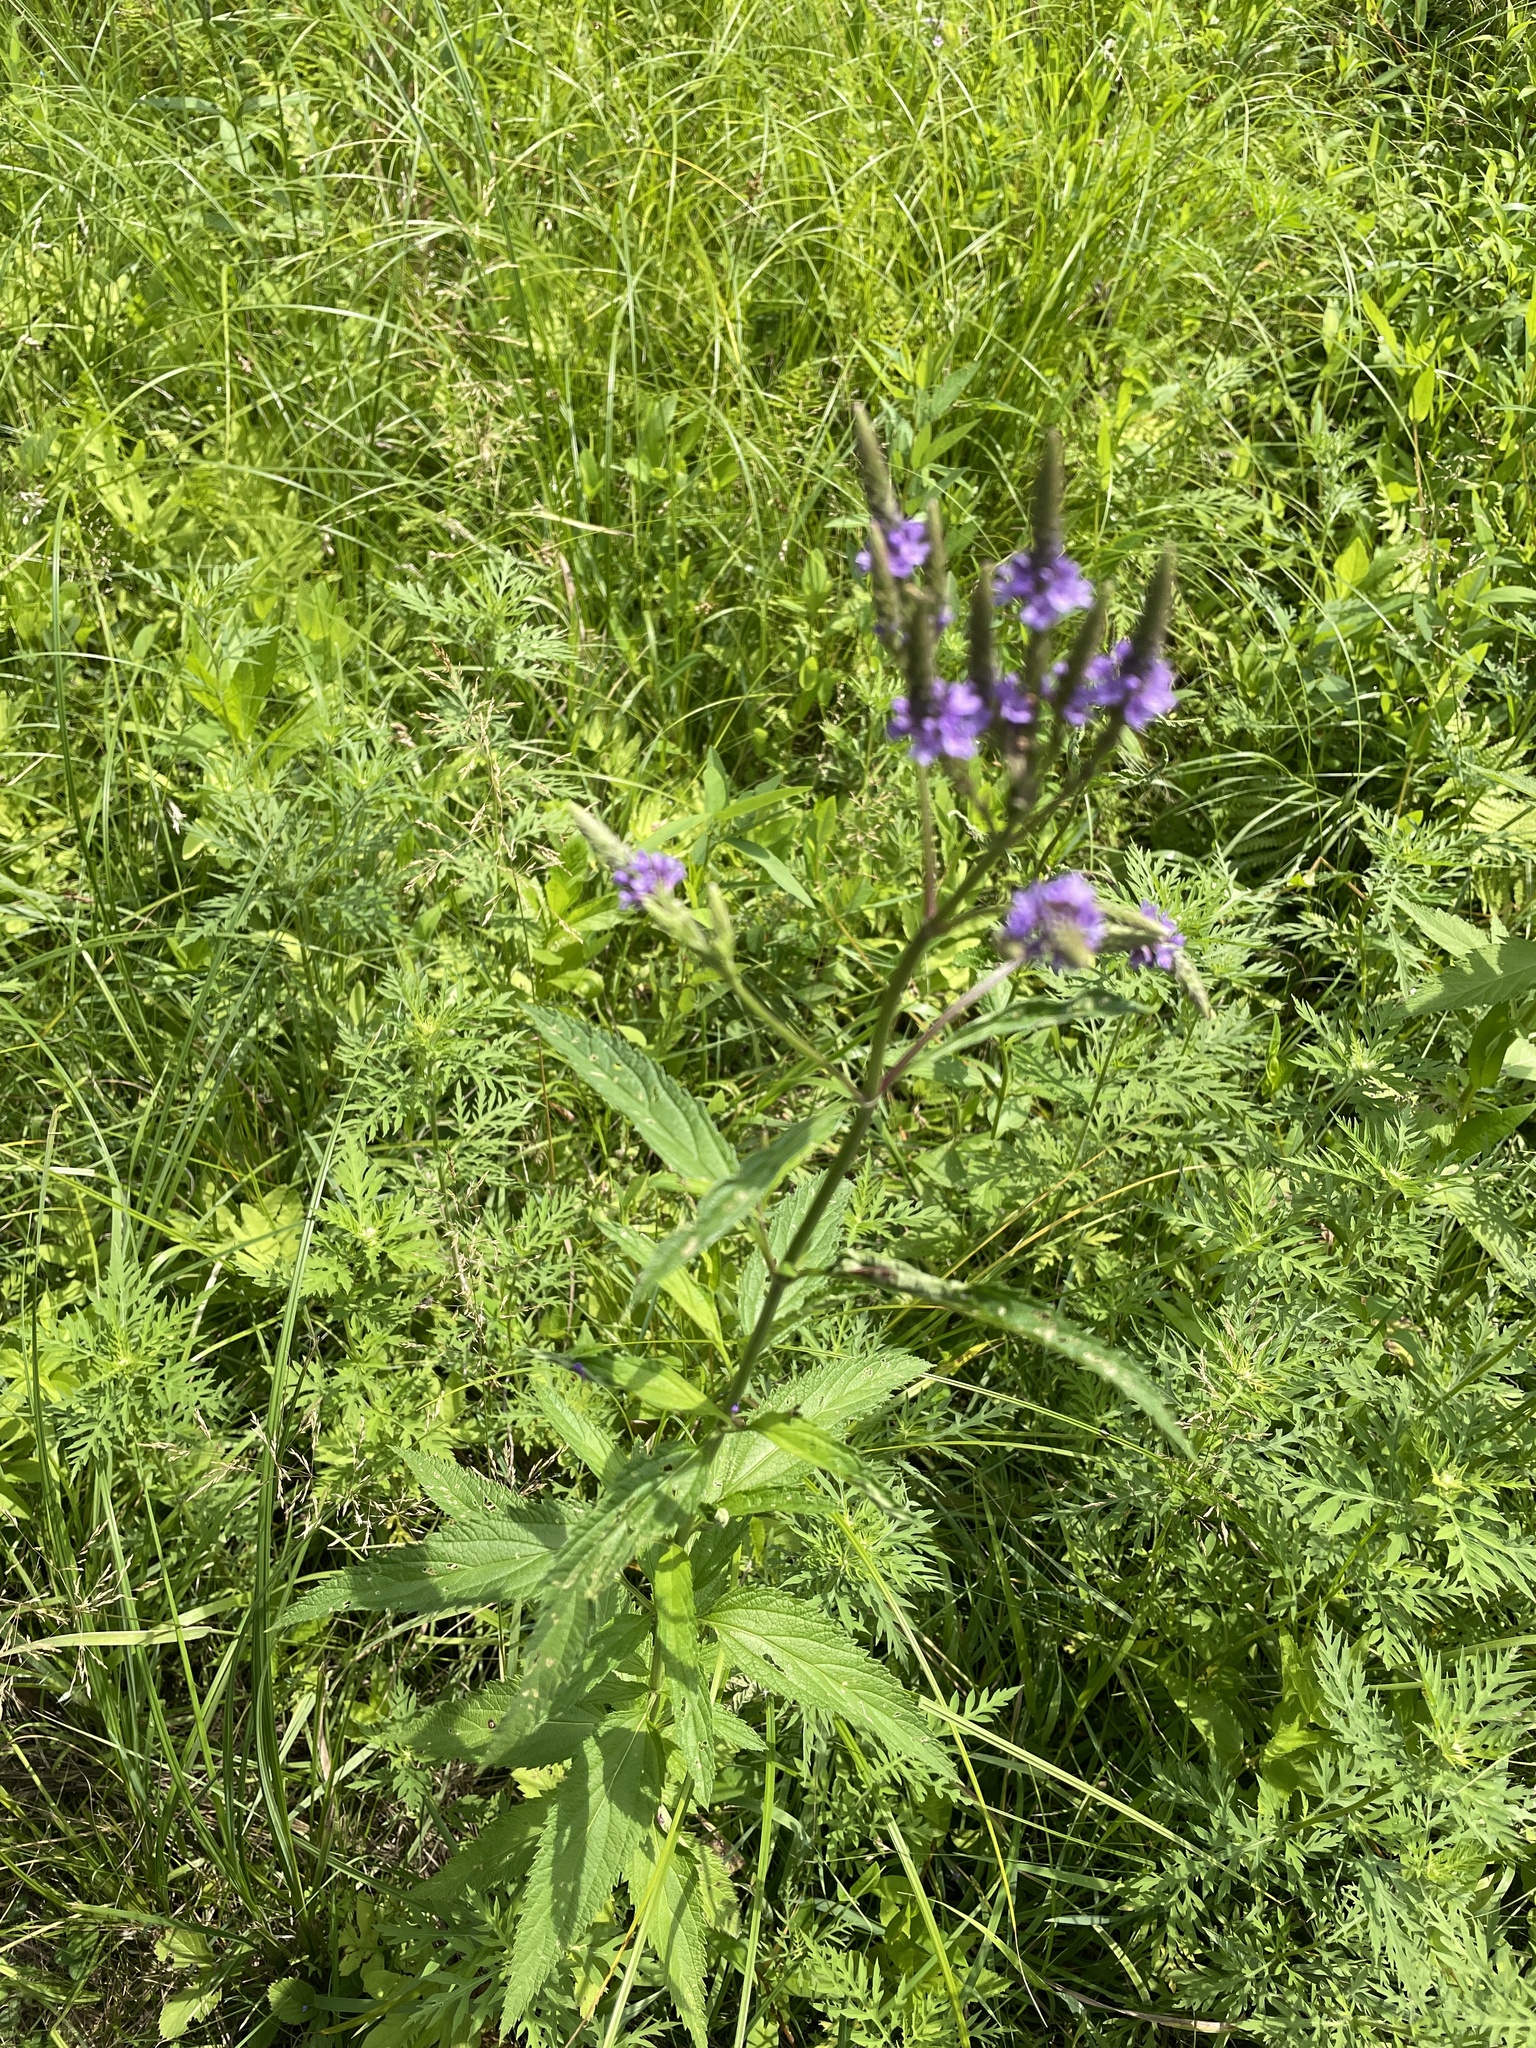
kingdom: Plantae
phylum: Tracheophyta
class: Magnoliopsida
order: Lamiales
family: Verbenaceae
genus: Verbena
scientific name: Verbena hastata
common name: American blue vervain
